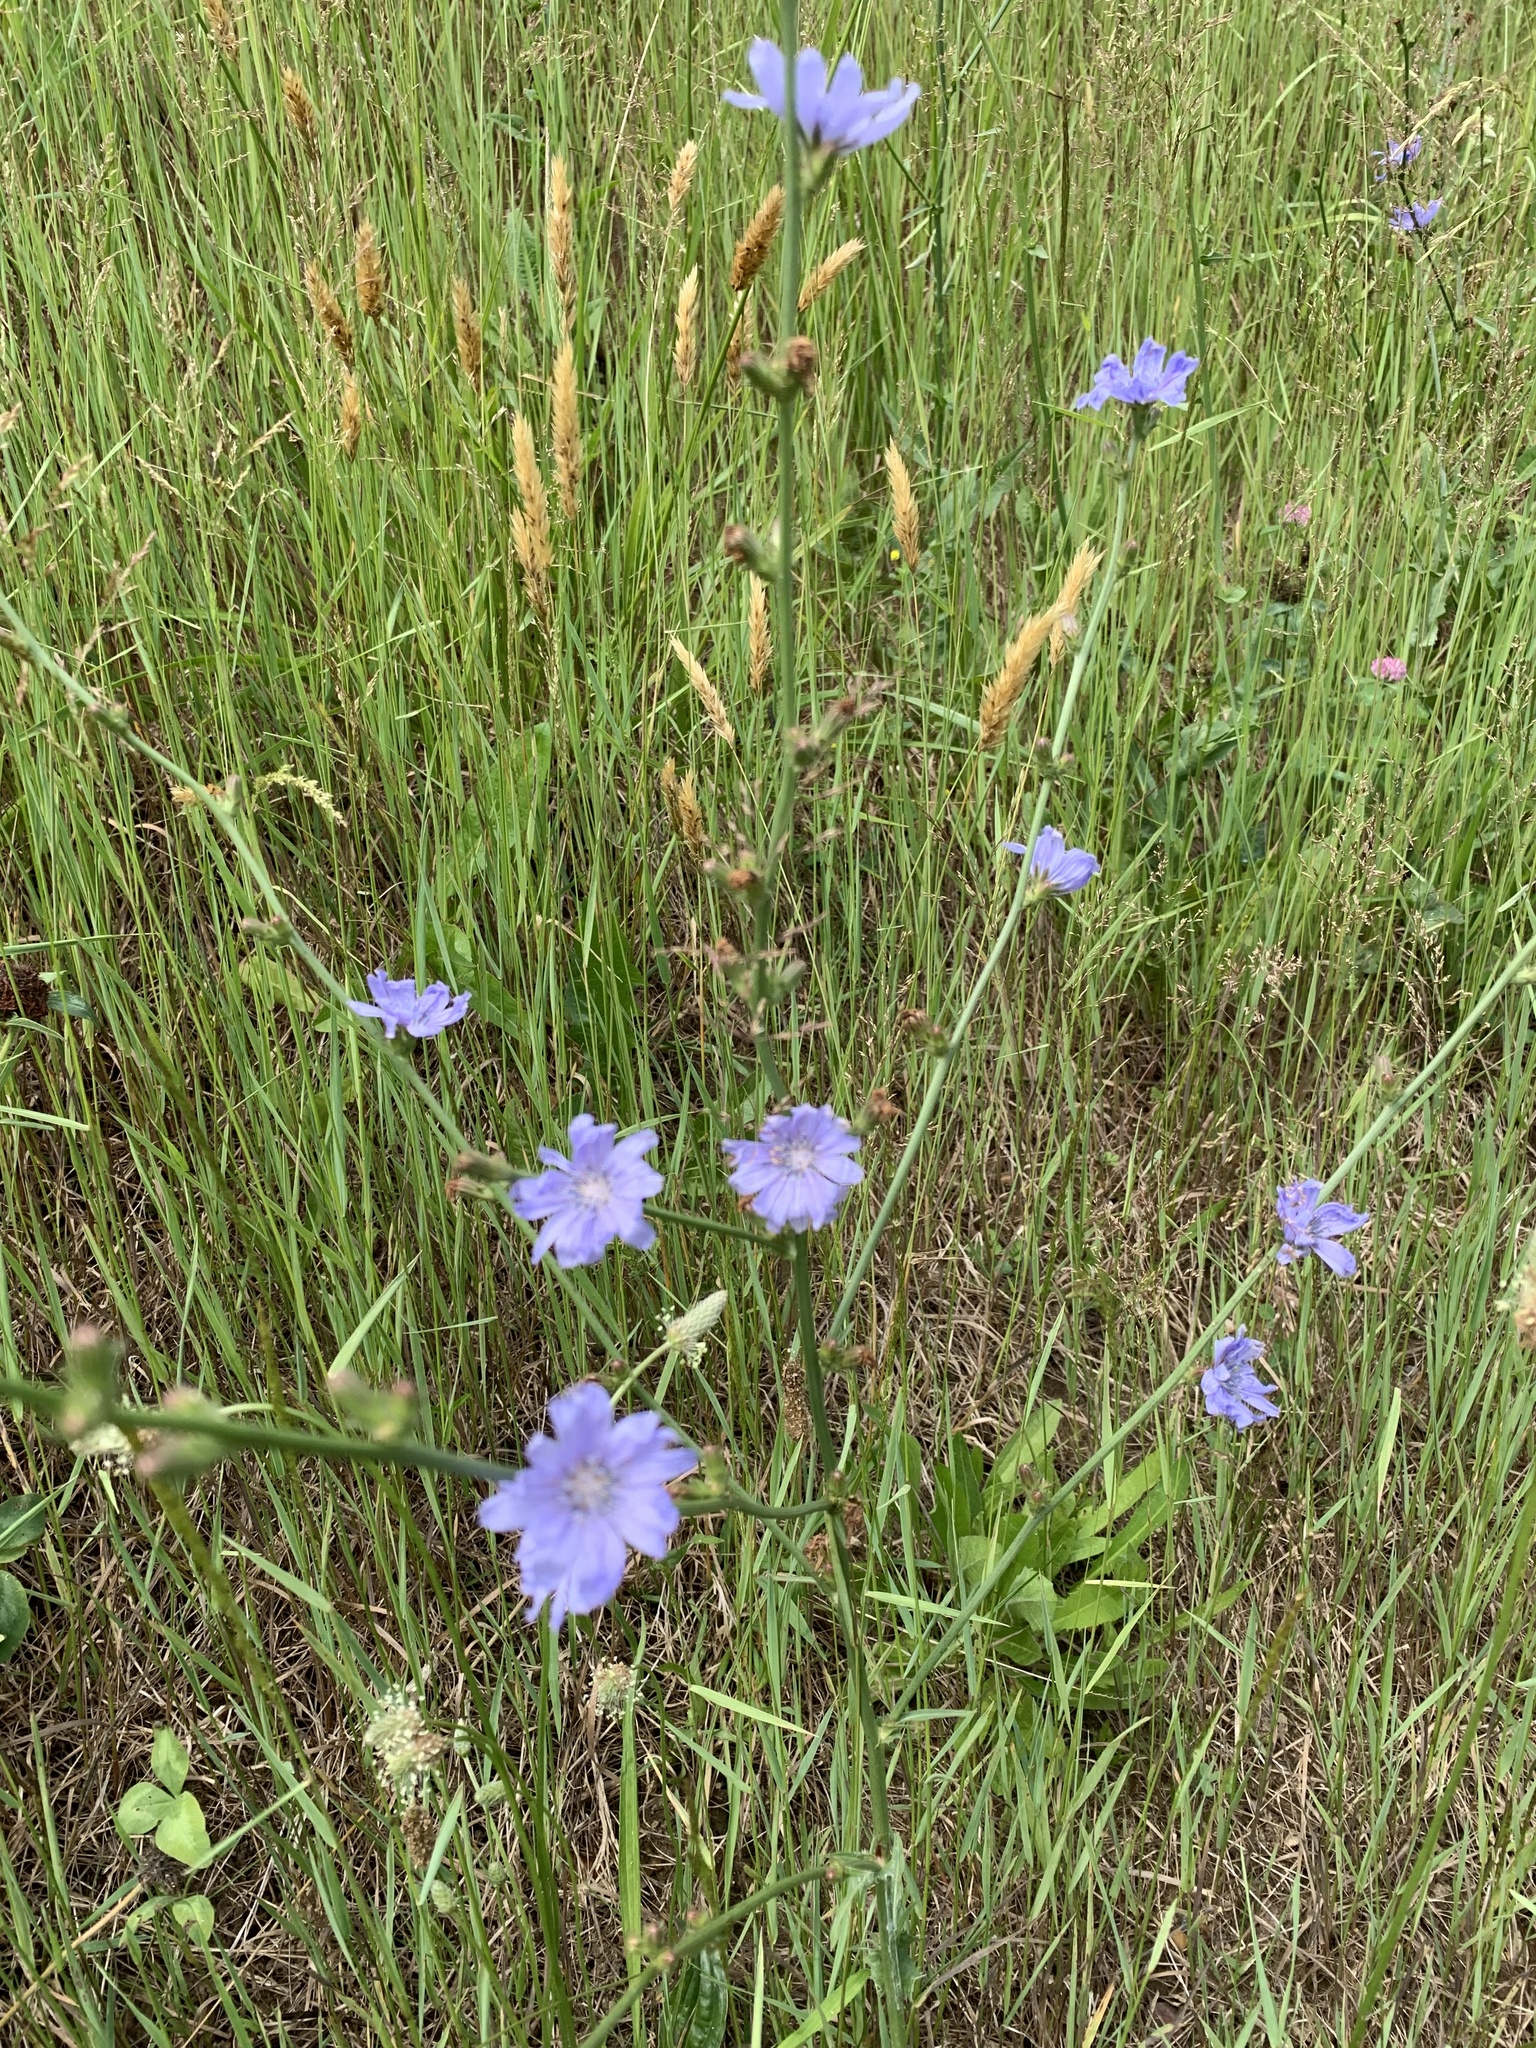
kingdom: Plantae
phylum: Tracheophyta
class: Magnoliopsida
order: Asterales
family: Asteraceae
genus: Cichorium
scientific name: Cichorium intybus
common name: Chicory
